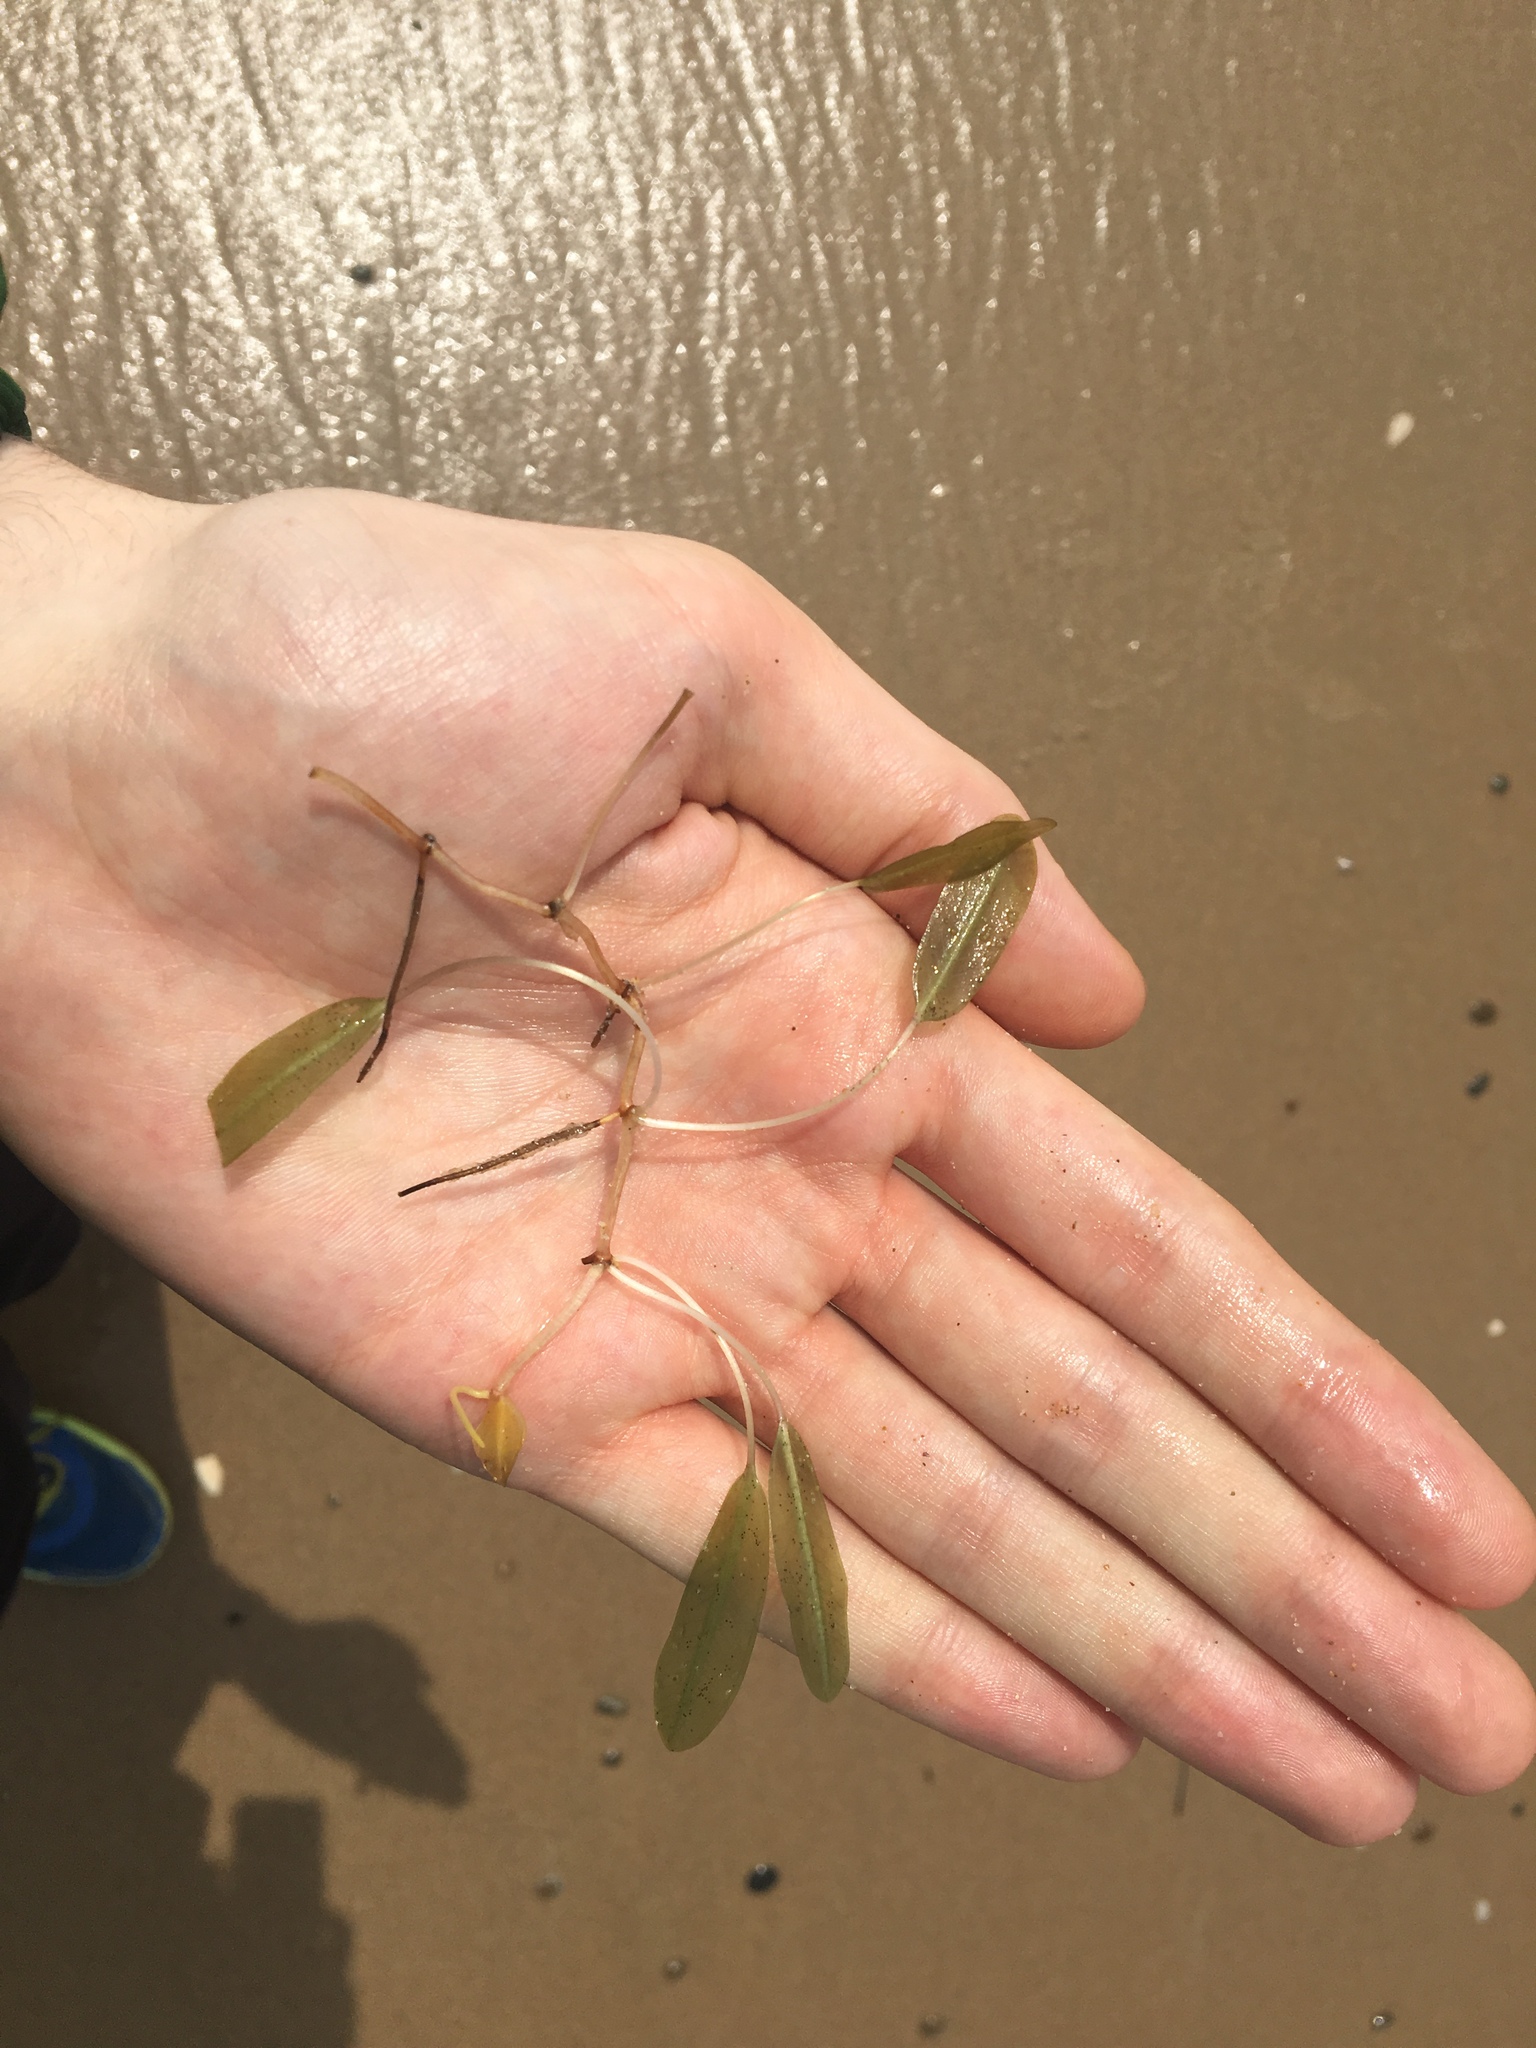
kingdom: Plantae
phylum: Tracheophyta
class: Liliopsida
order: Alismatales
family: Hydrocharitaceae
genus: Halophila
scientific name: Halophila ovalis
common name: Species code: ho
